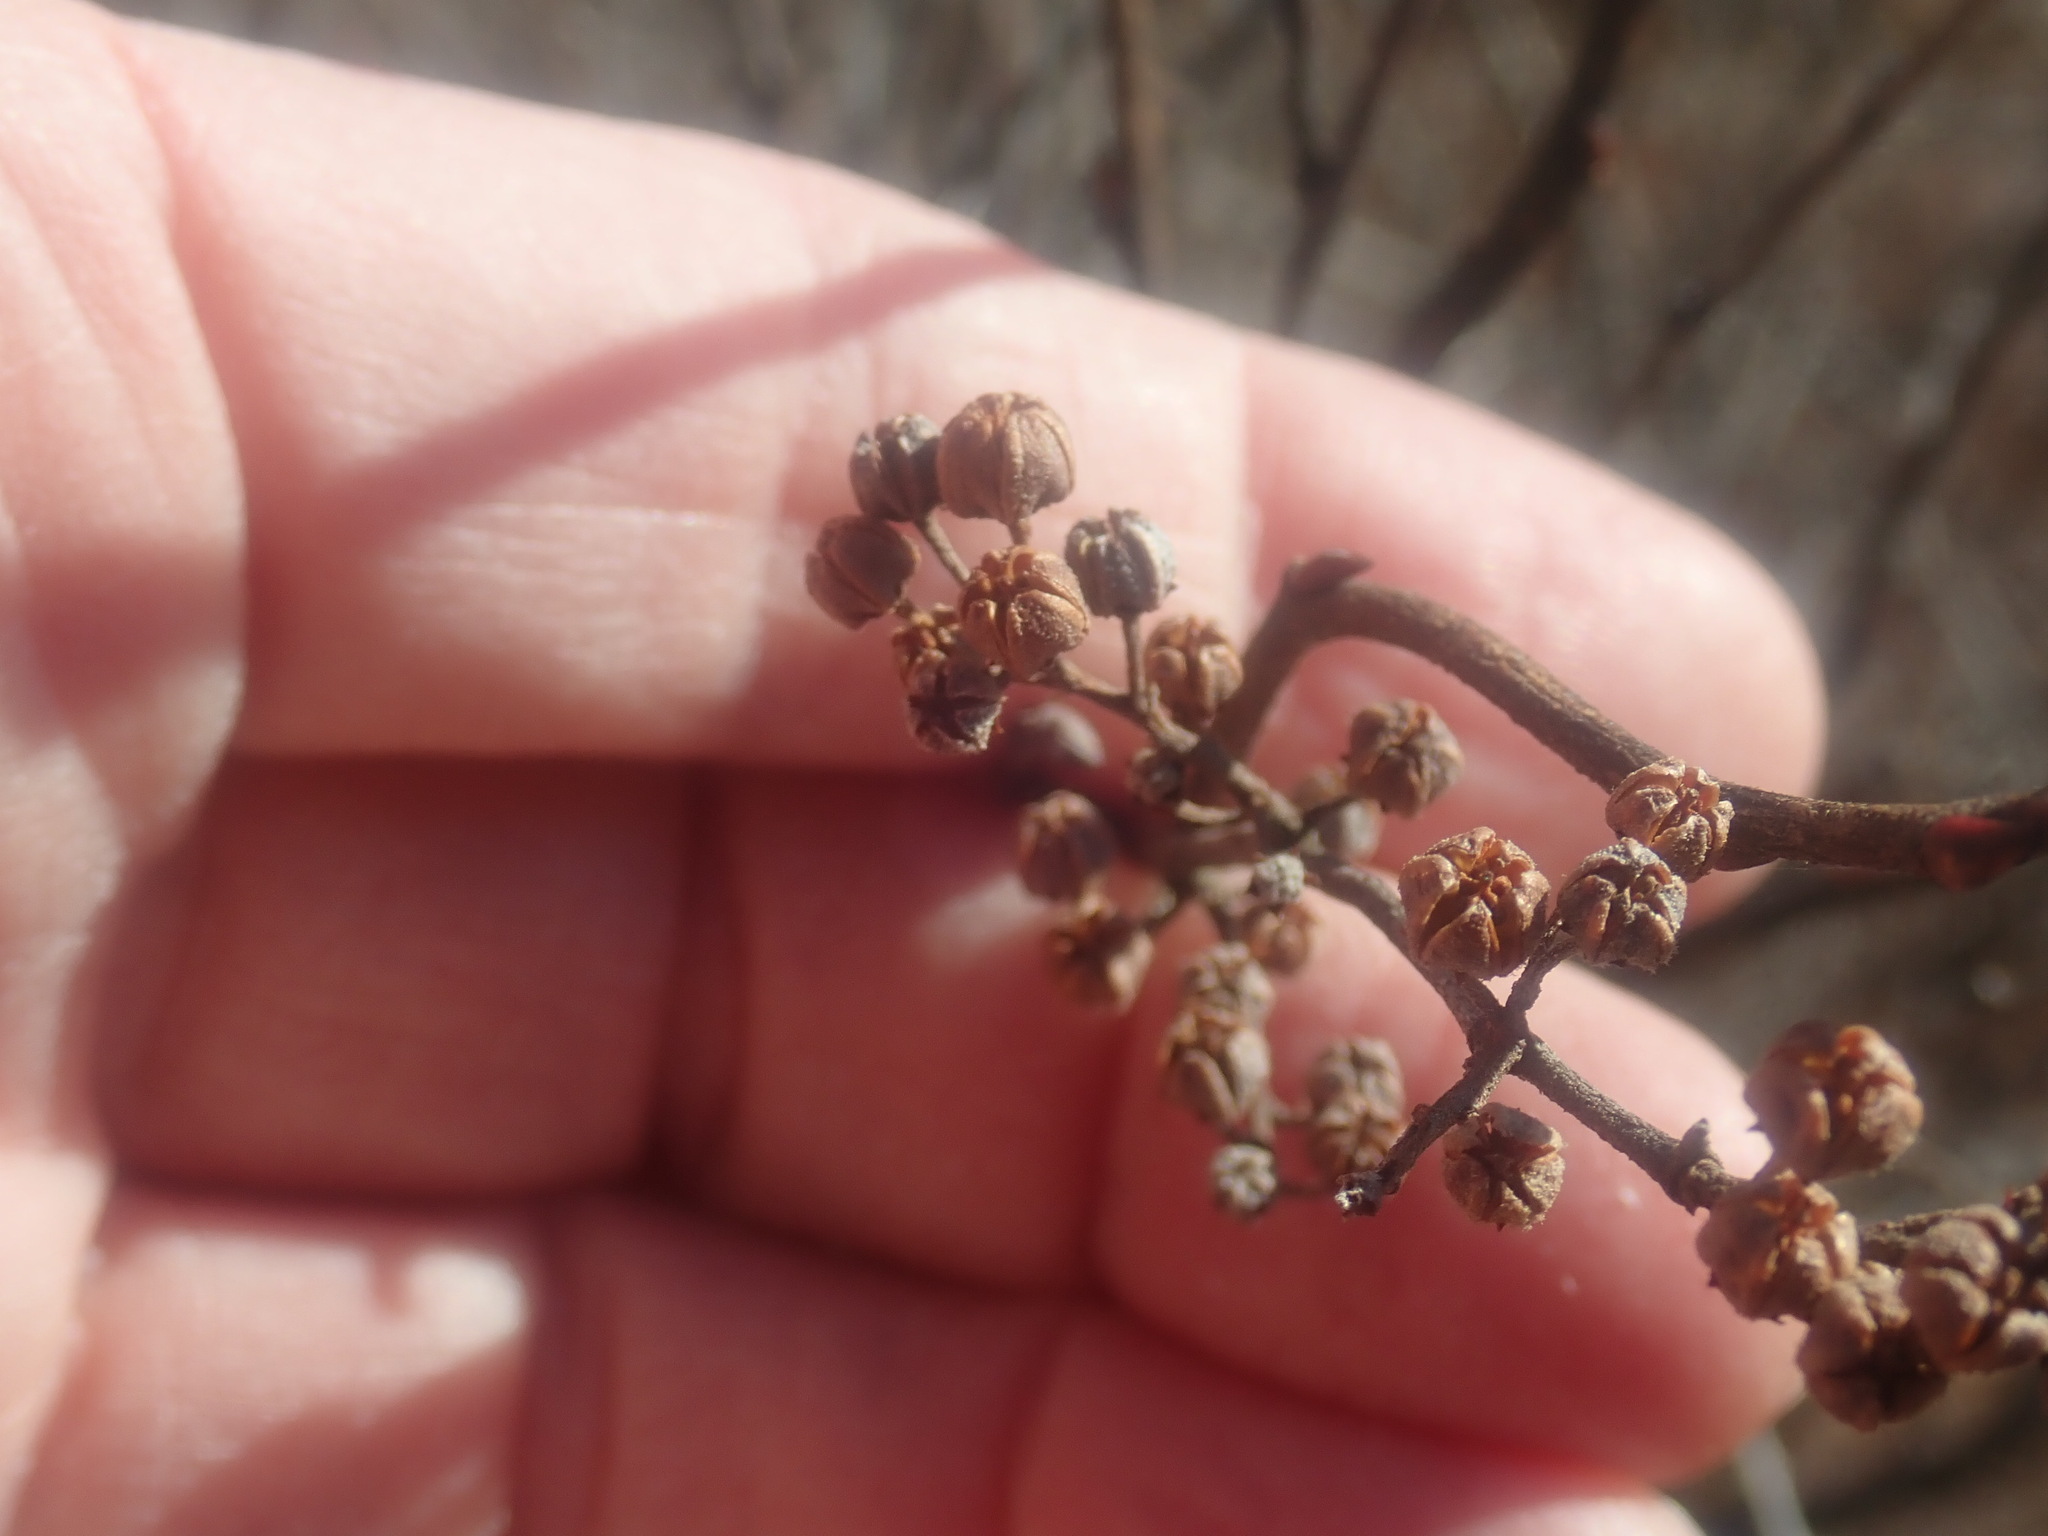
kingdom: Plantae
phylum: Tracheophyta
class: Magnoliopsida
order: Ericales
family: Ericaceae
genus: Lyonia
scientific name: Lyonia ligustrina
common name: Maleberry
